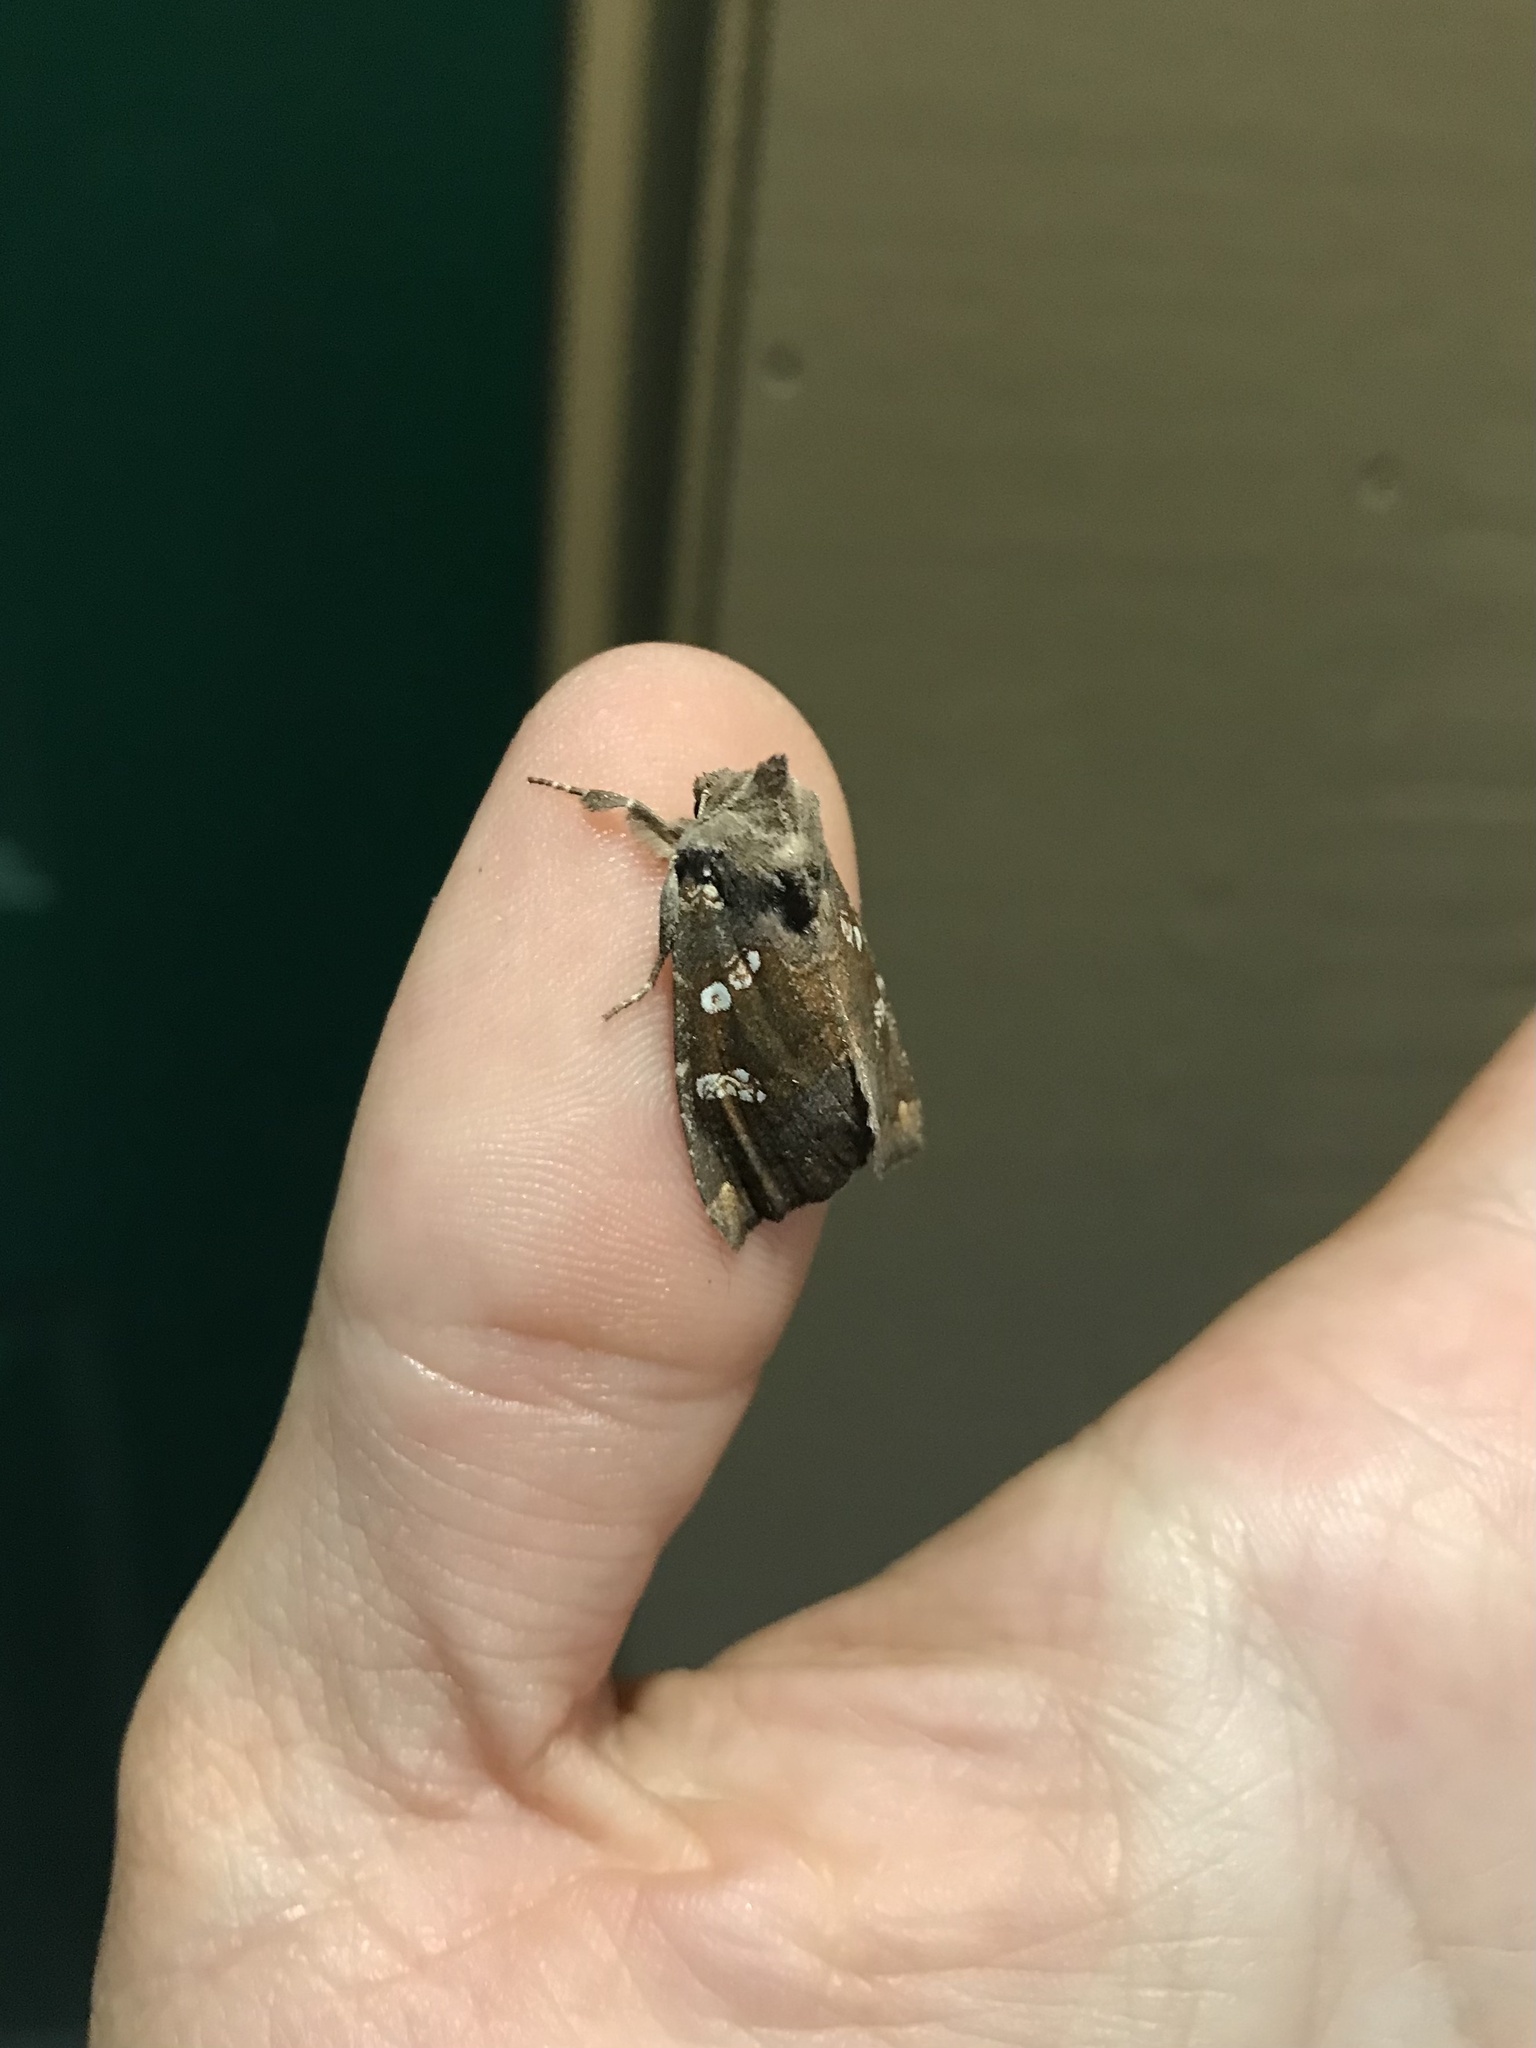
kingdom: Animalia
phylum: Arthropoda
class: Insecta
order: Lepidoptera
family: Noctuidae
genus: Papaipema
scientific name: Papaipema unimoda
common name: Meadow rue borer moth
